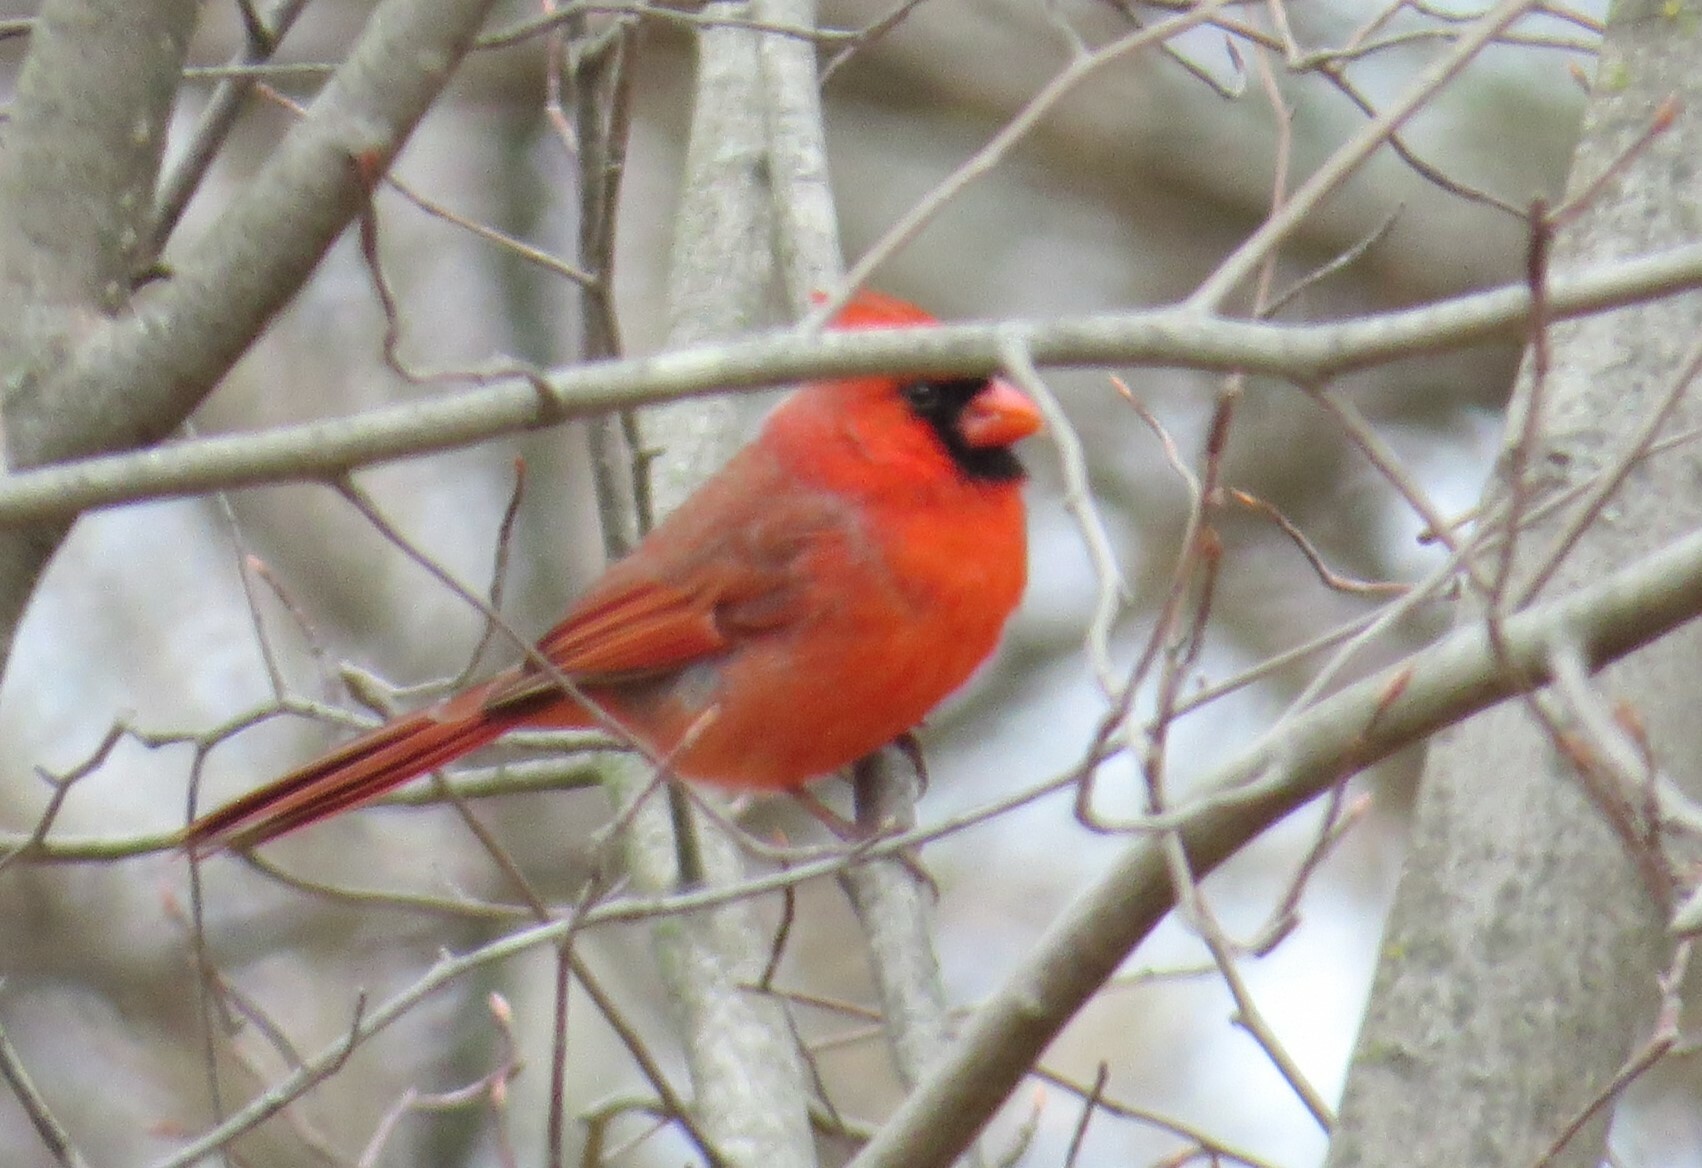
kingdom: Animalia
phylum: Chordata
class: Aves
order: Passeriformes
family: Cardinalidae
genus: Cardinalis
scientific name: Cardinalis cardinalis
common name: Northern cardinal
